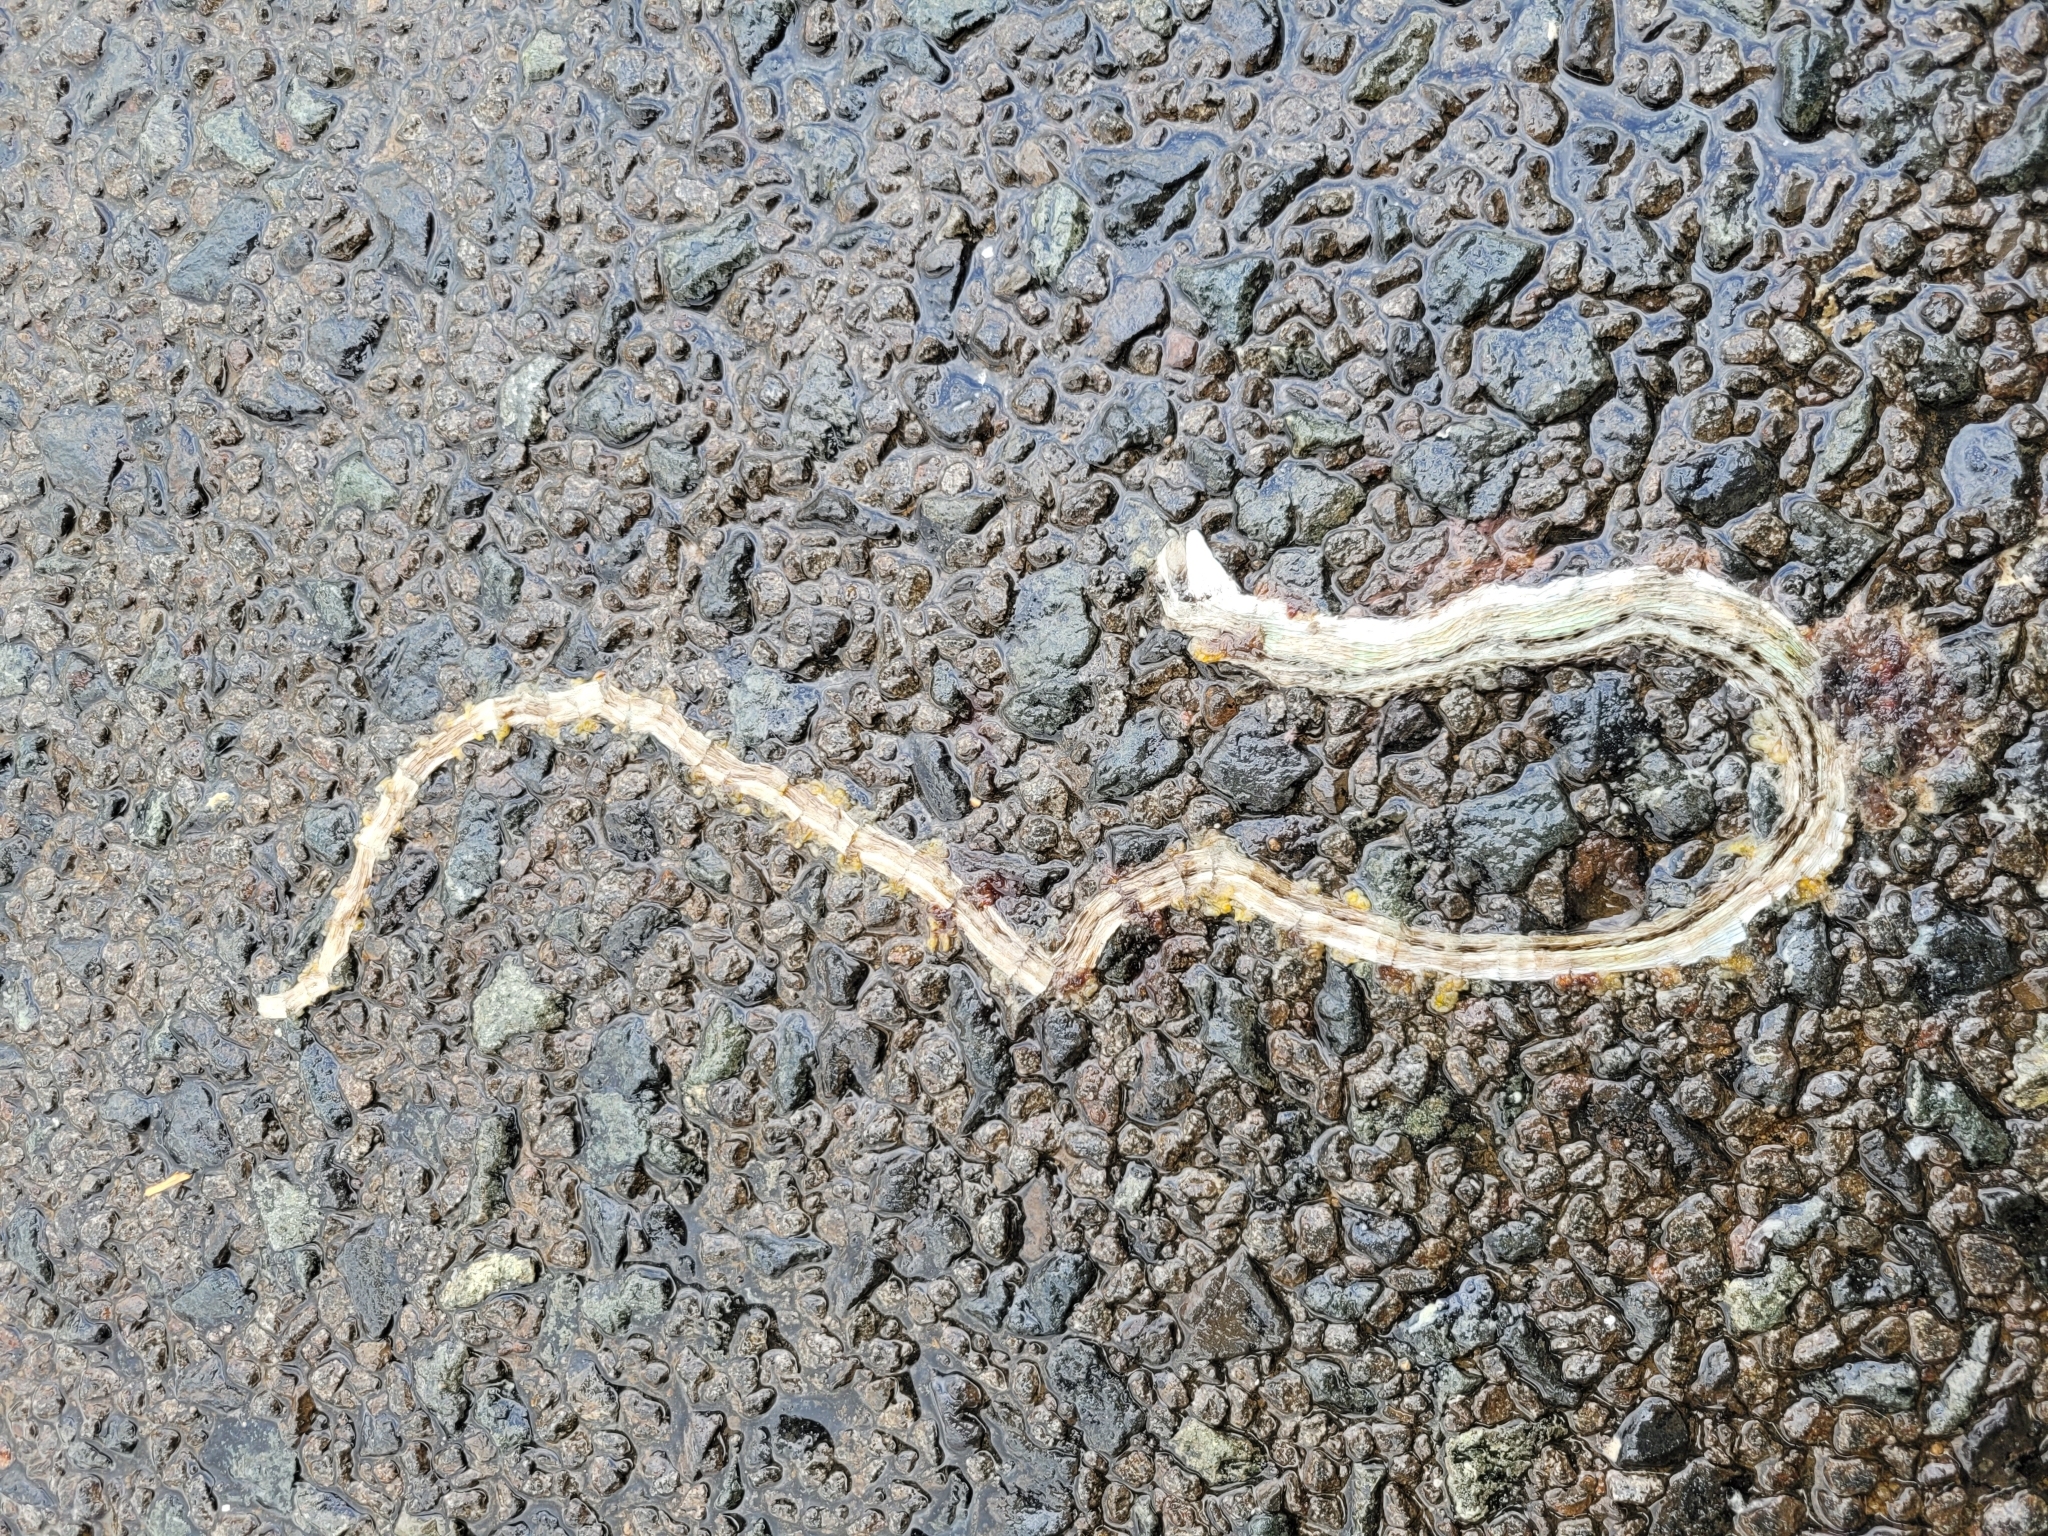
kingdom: Animalia
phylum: Chordata
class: Squamata
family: Cordylidae
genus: Chamaesaura
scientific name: Chamaesaura macrolepis
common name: Large-scaled grass lizard
